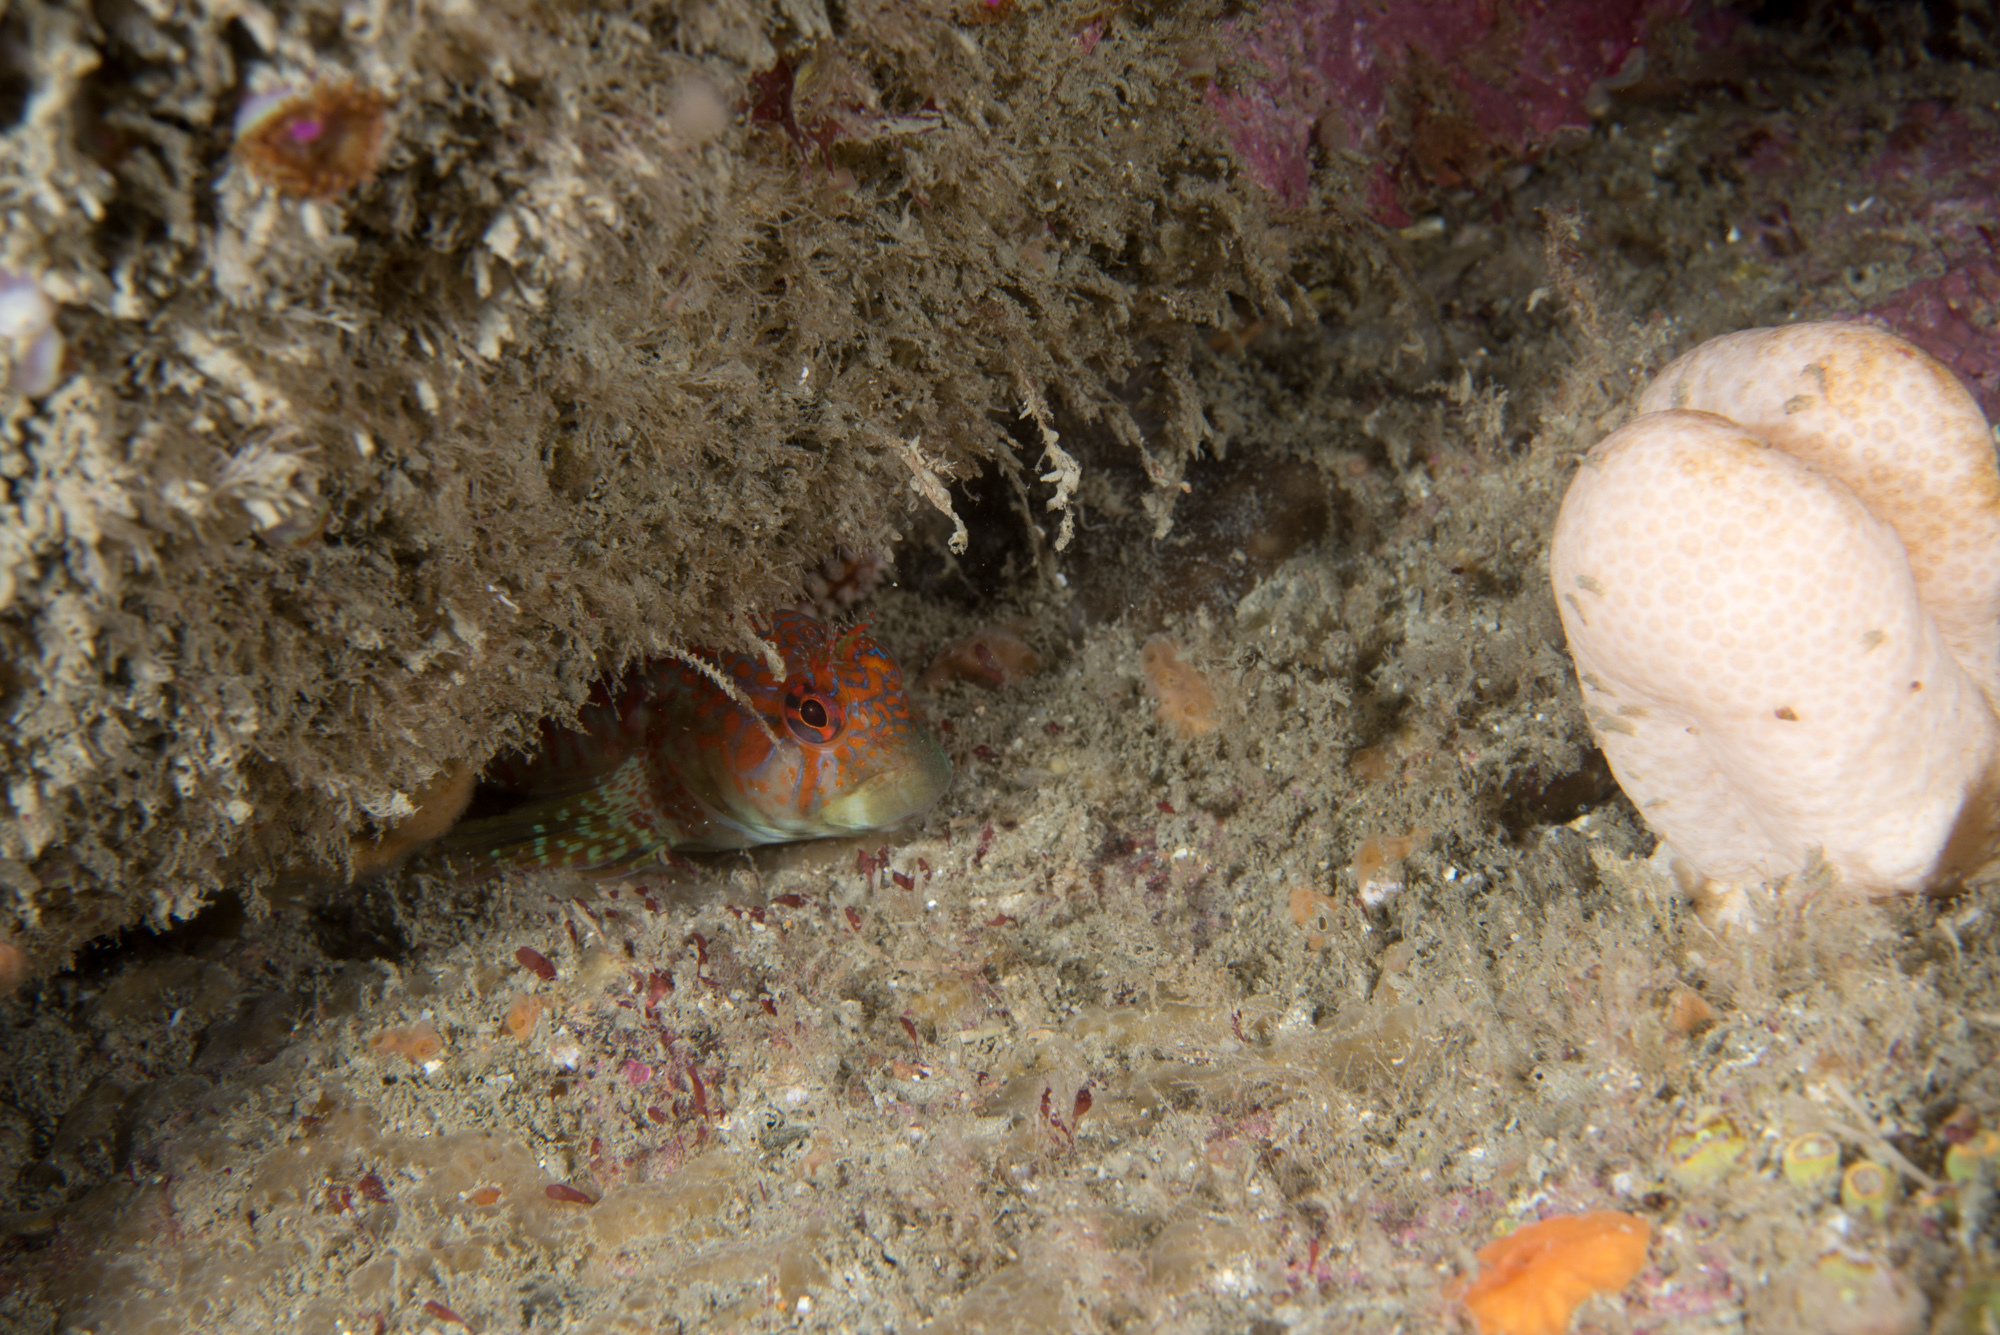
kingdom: Animalia
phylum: Chordata
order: Perciformes
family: Blenniidae
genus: Parablennius
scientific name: Parablennius ruber
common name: Portuguese blenny
